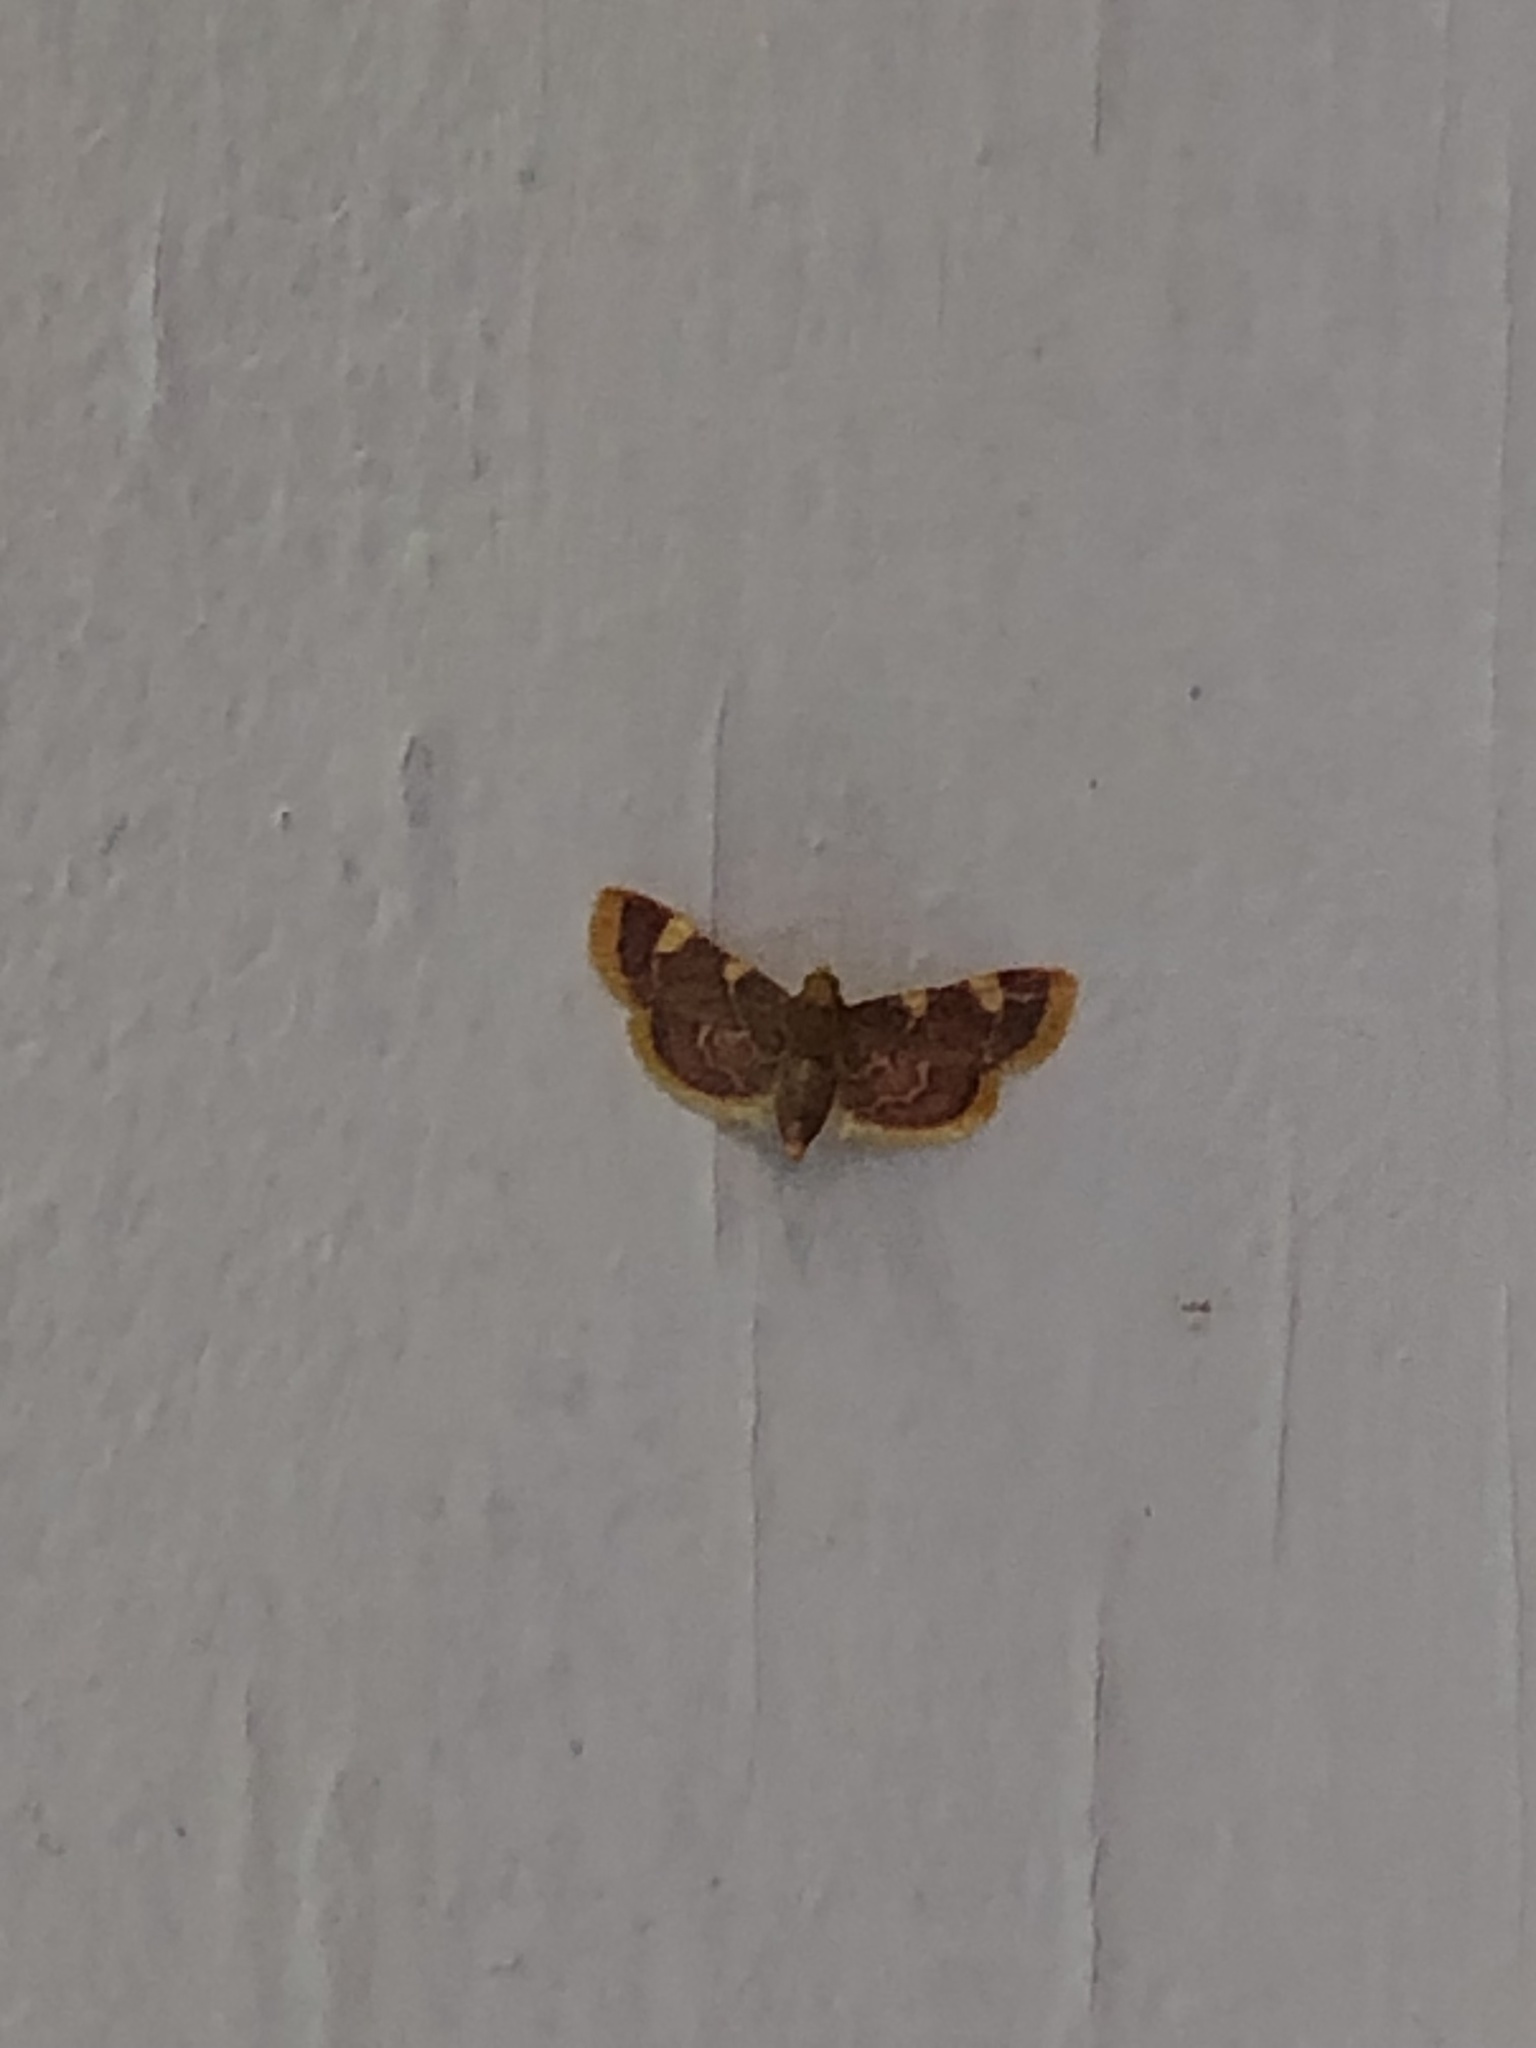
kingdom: Animalia
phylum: Arthropoda
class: Insecta
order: Lepidoptera
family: Pyralidae
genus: Hypsopygia
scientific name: Hypsopygia costalis
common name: Gold triangle
